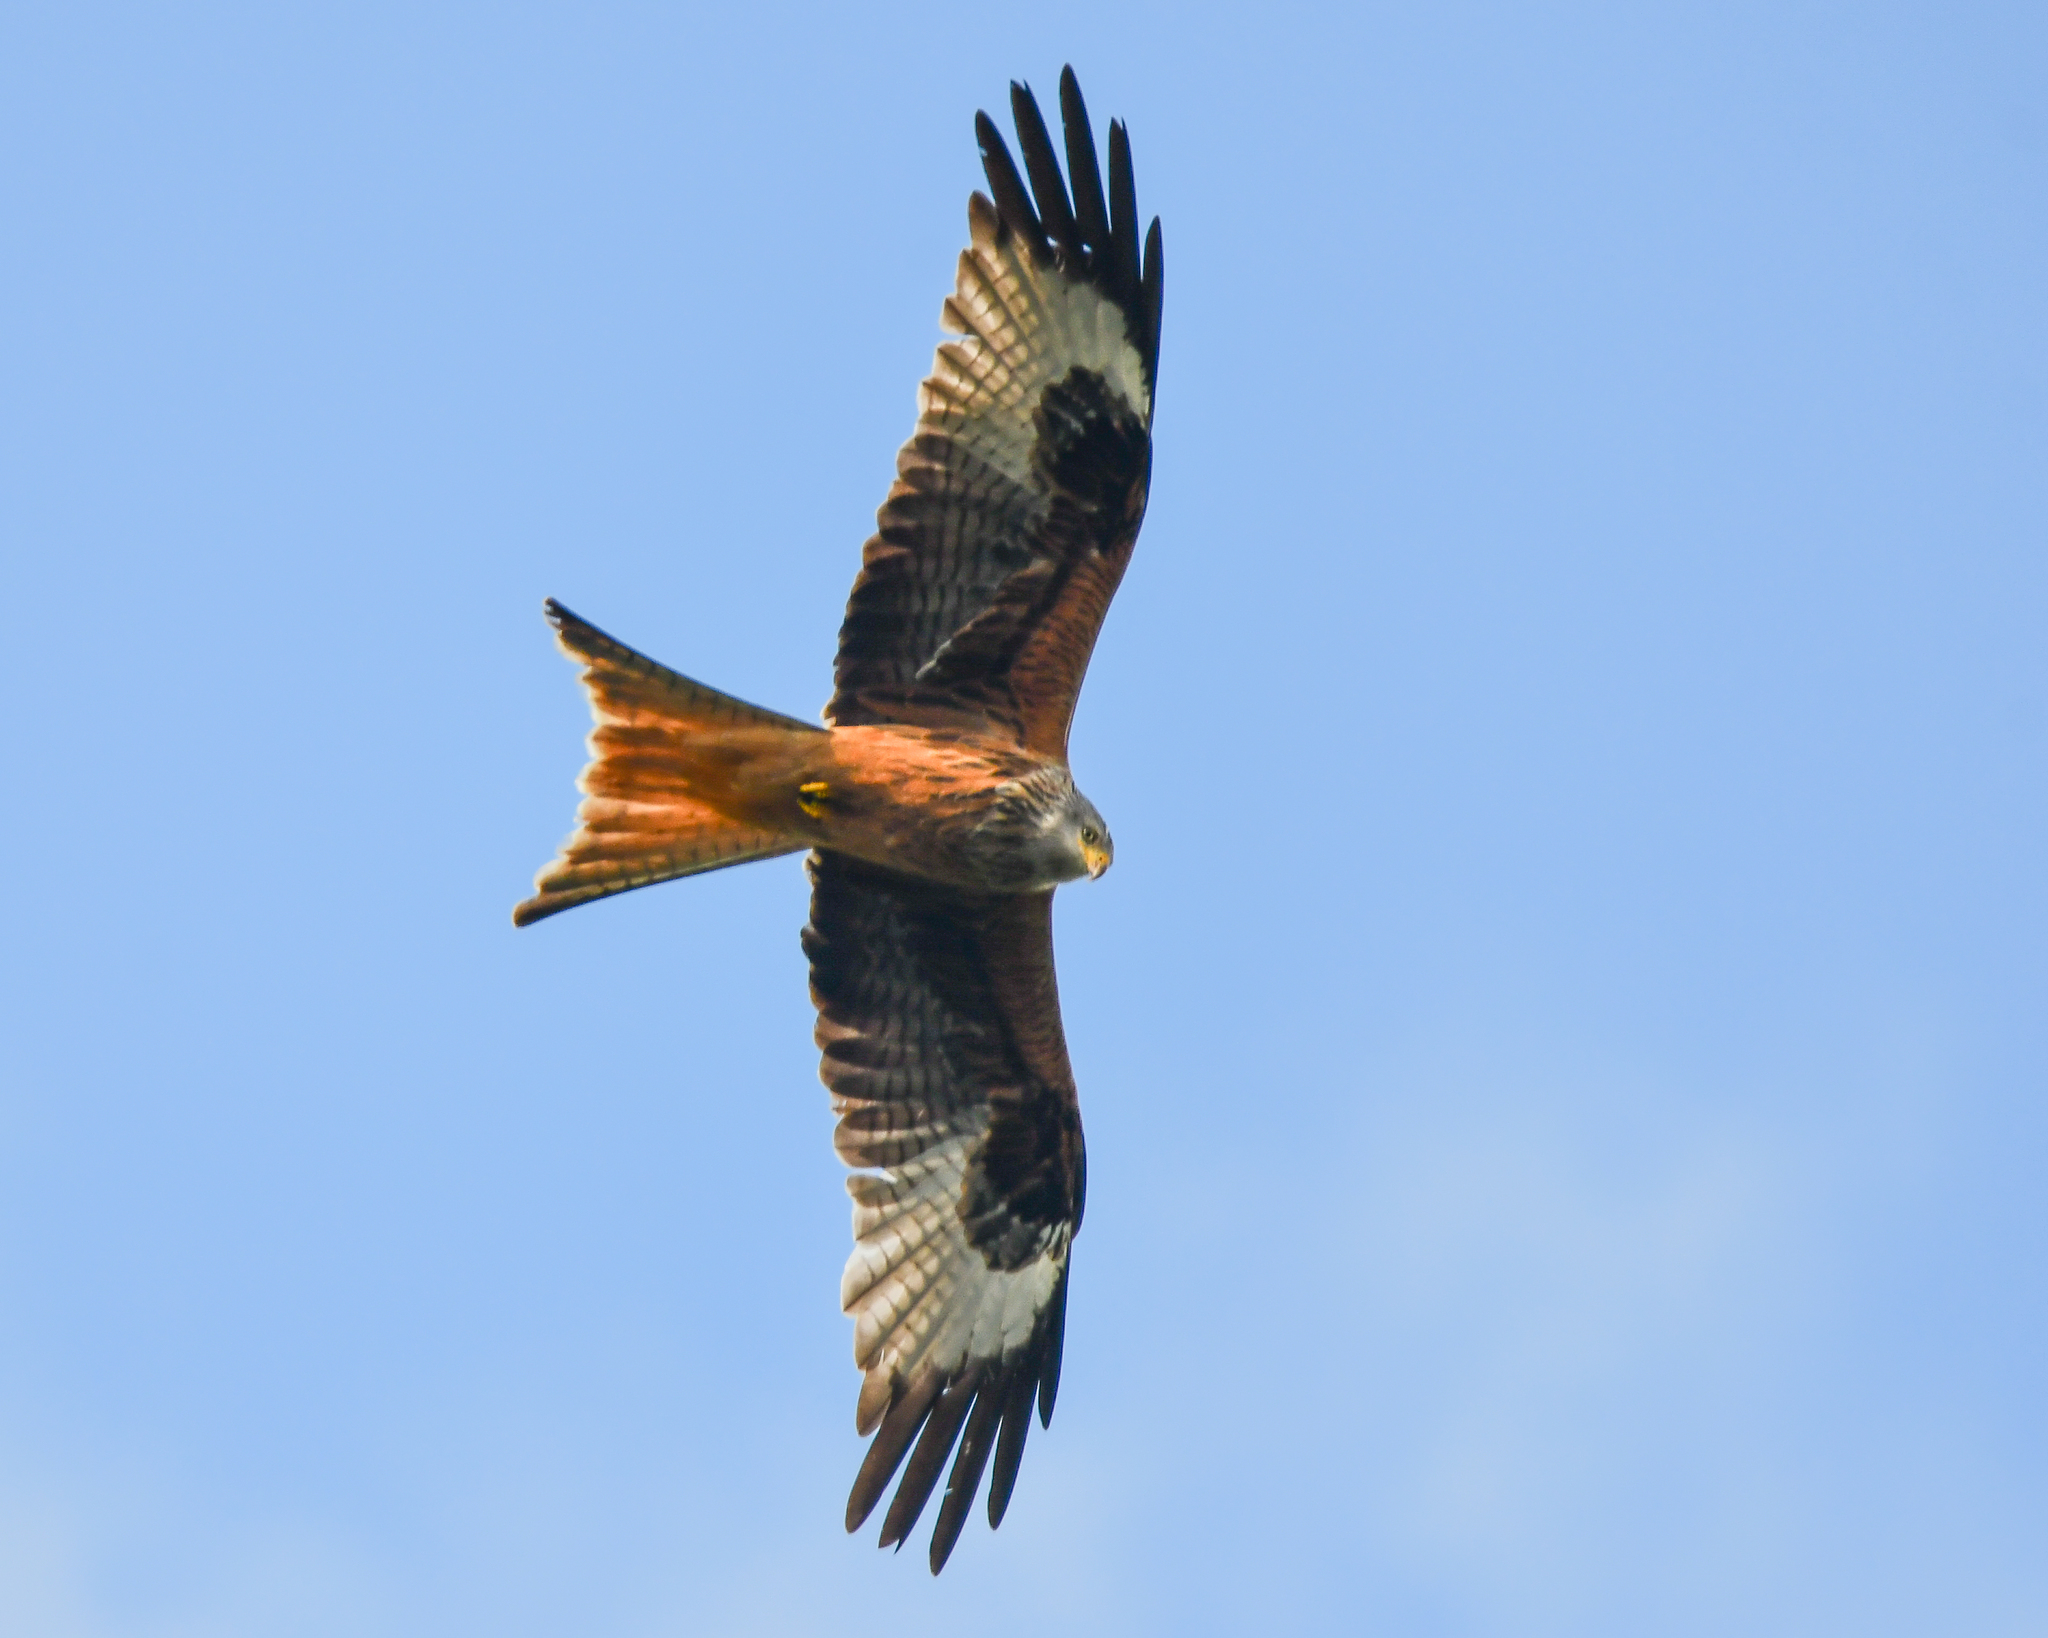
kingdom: Animalia
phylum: Chordata
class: Aves
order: Accipitriformes
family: Accipitridae
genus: Milvus
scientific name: Milvus milvus
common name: Red kite
